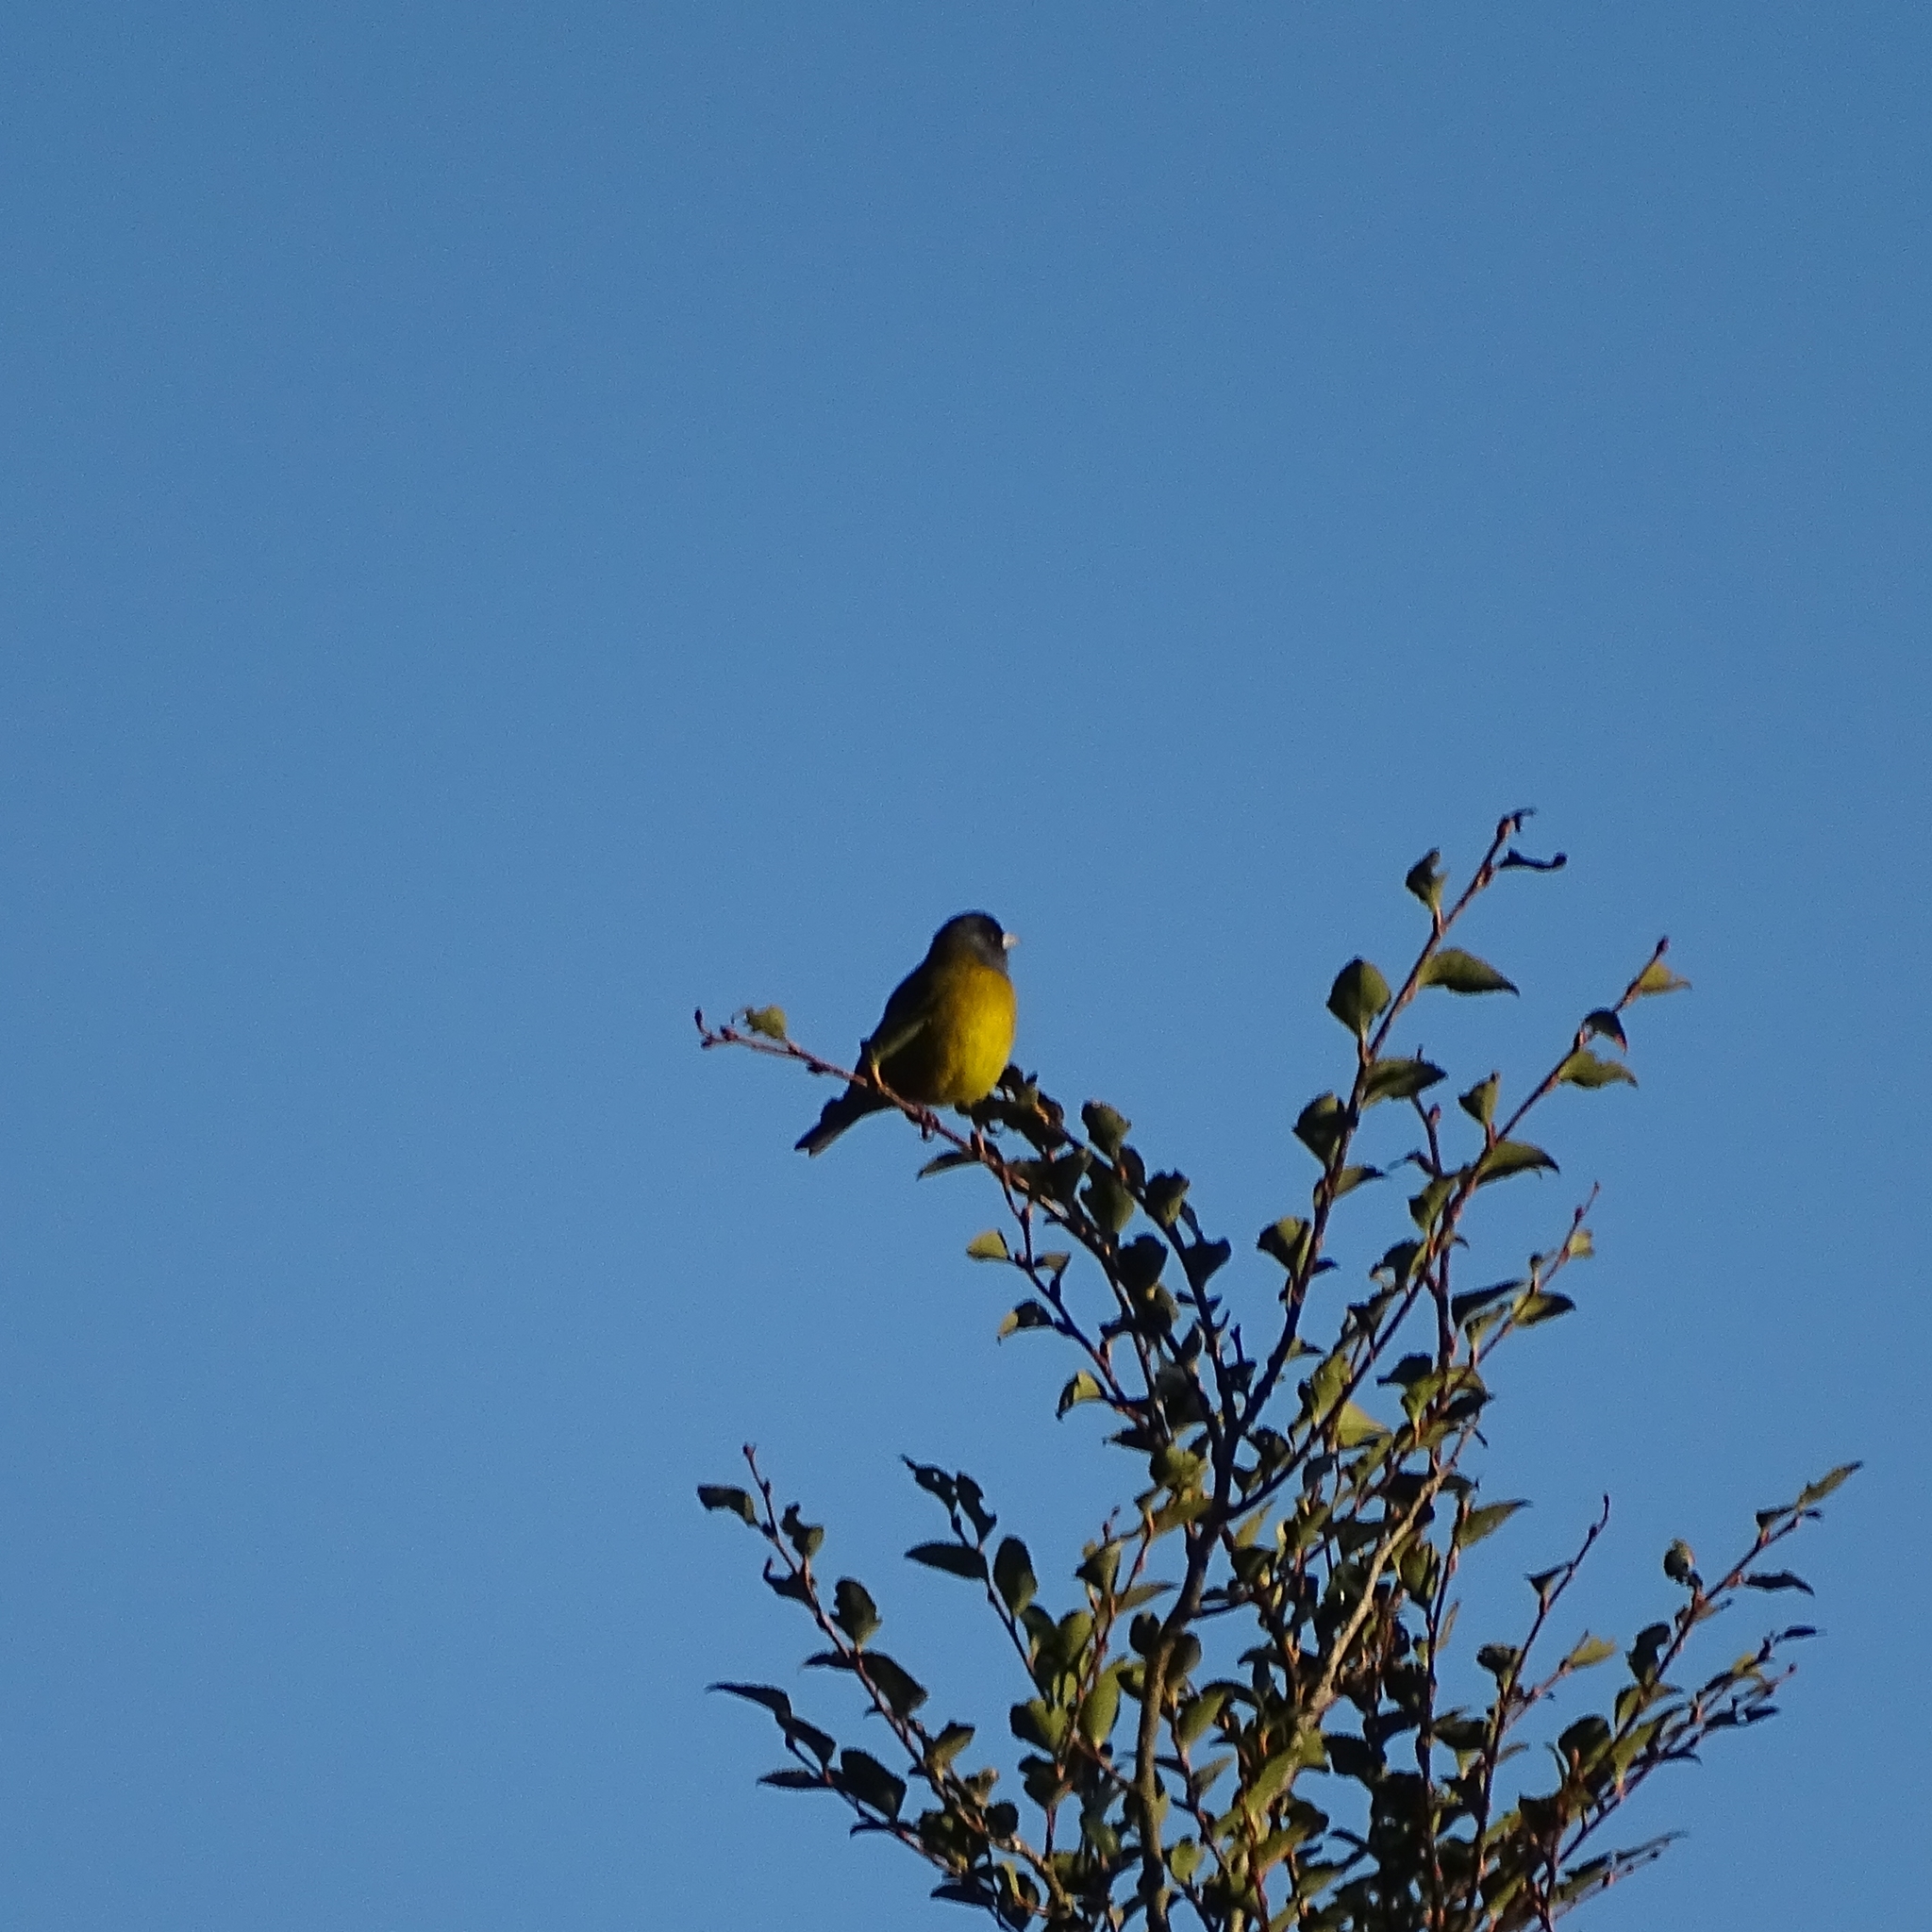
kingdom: Animalia
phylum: Chordata
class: Aves
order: Passeriformes
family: Thraupidae
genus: Phrygilus
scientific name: Phrygilus patagonicus
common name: Patagonian sierra finch
